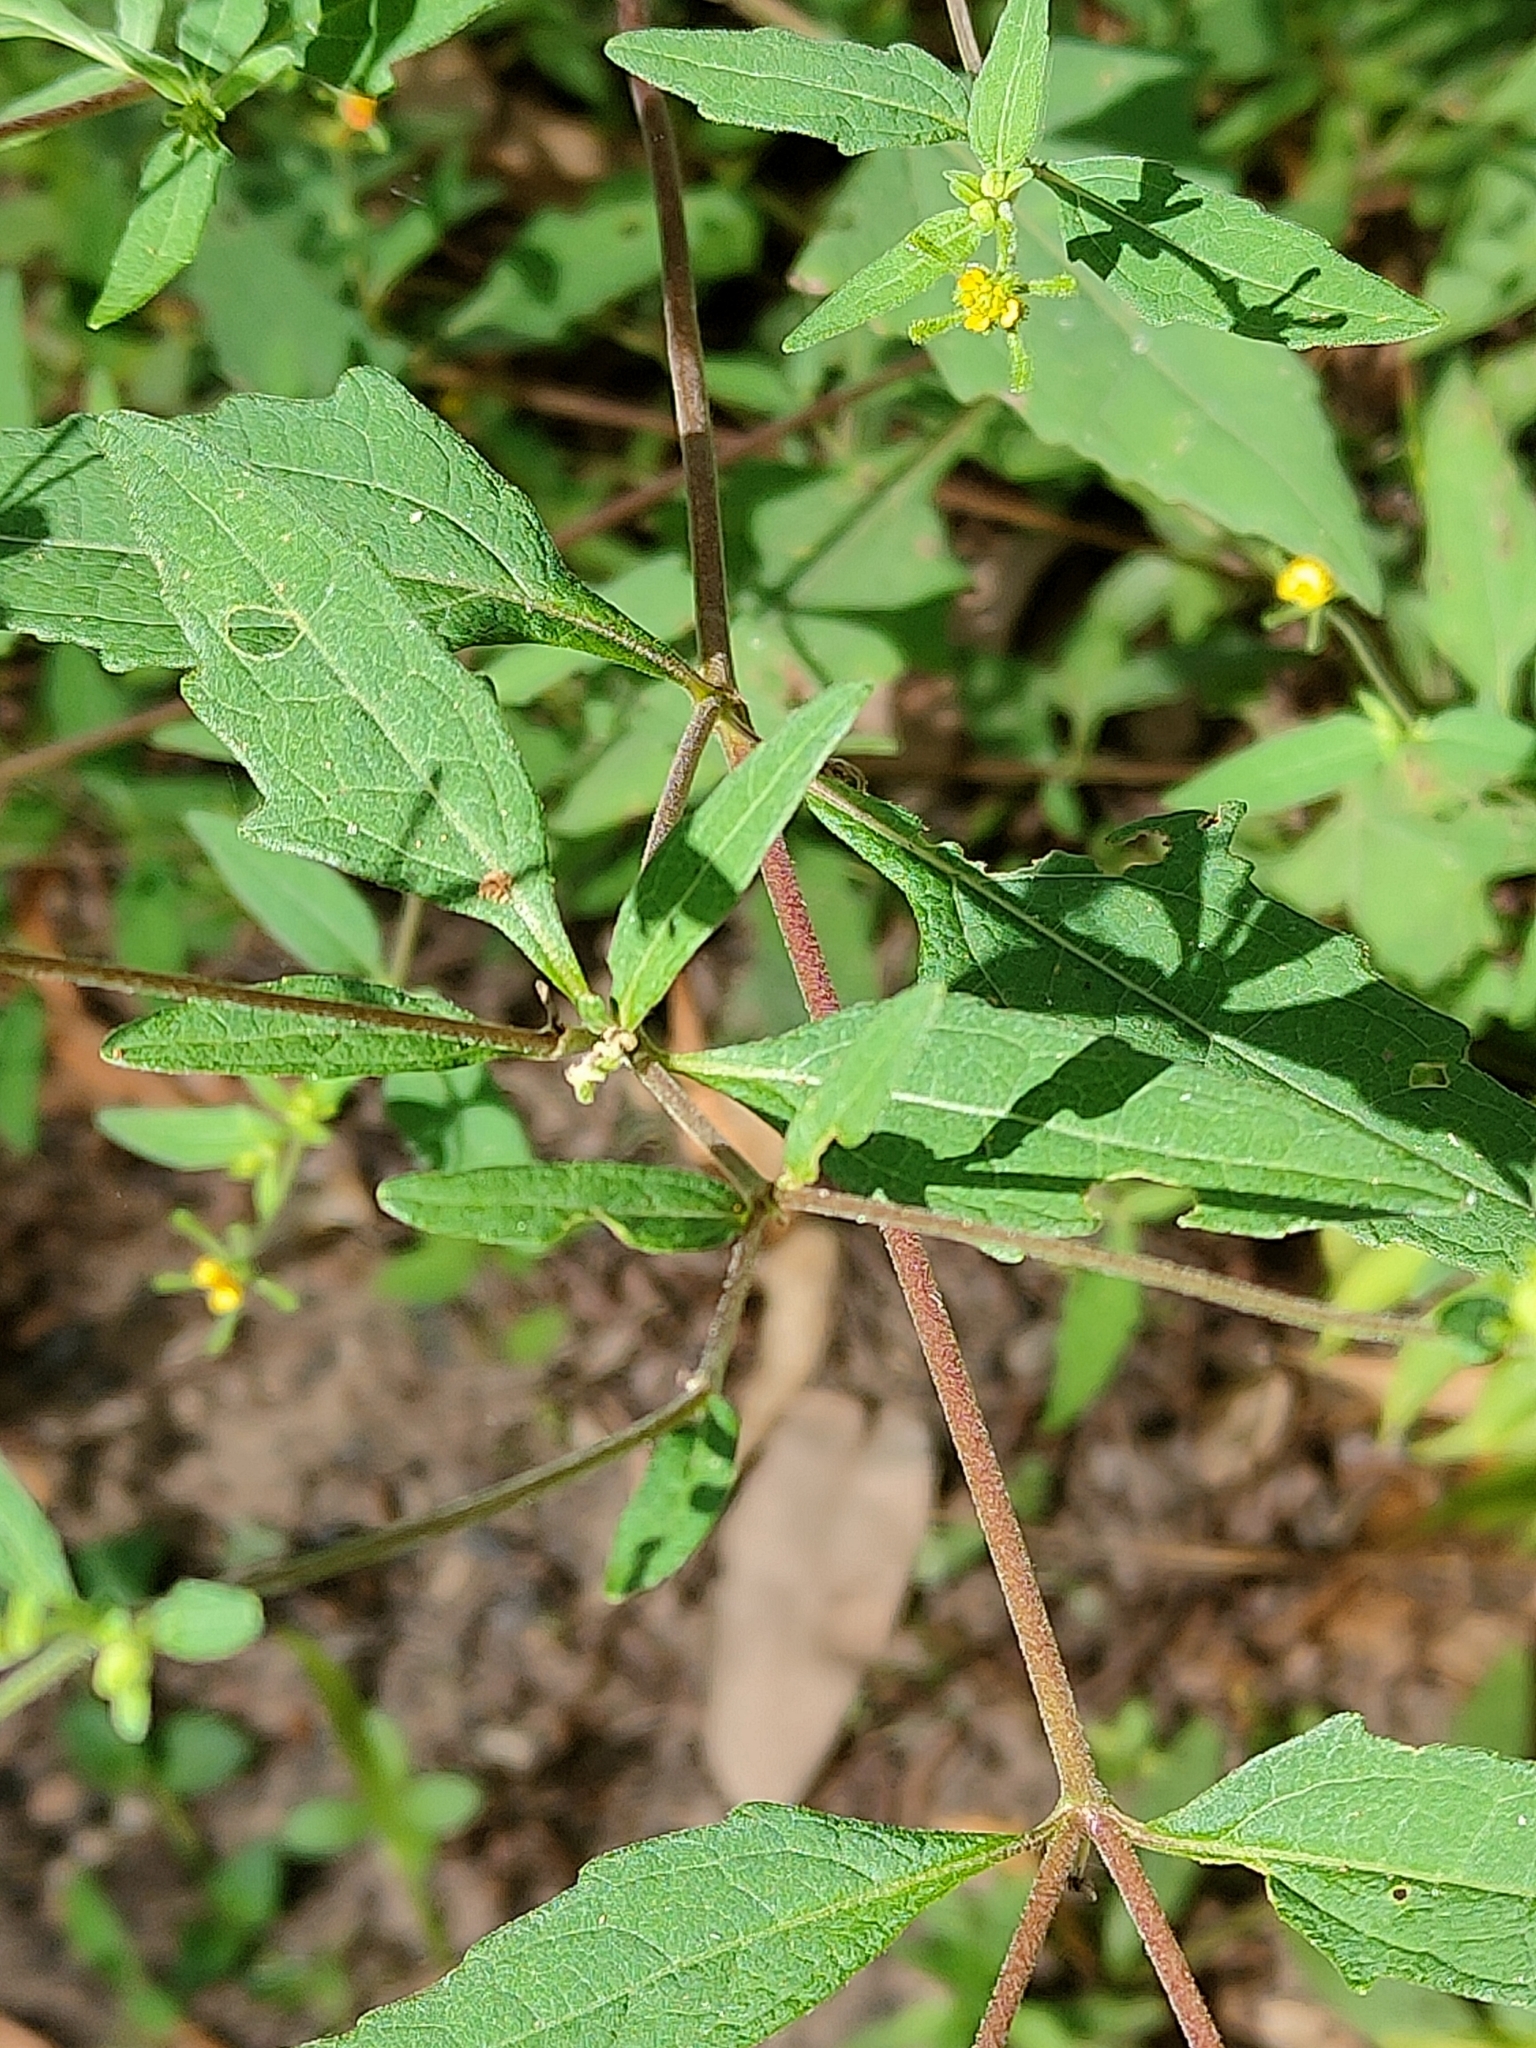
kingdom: Plantae
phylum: Tracheophyta
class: Magnoliopsida
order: Asterales
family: Asteraceae
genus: Sigesbeckia
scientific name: Sigesbeckia orientalis
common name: Eastern st paul's-wort
